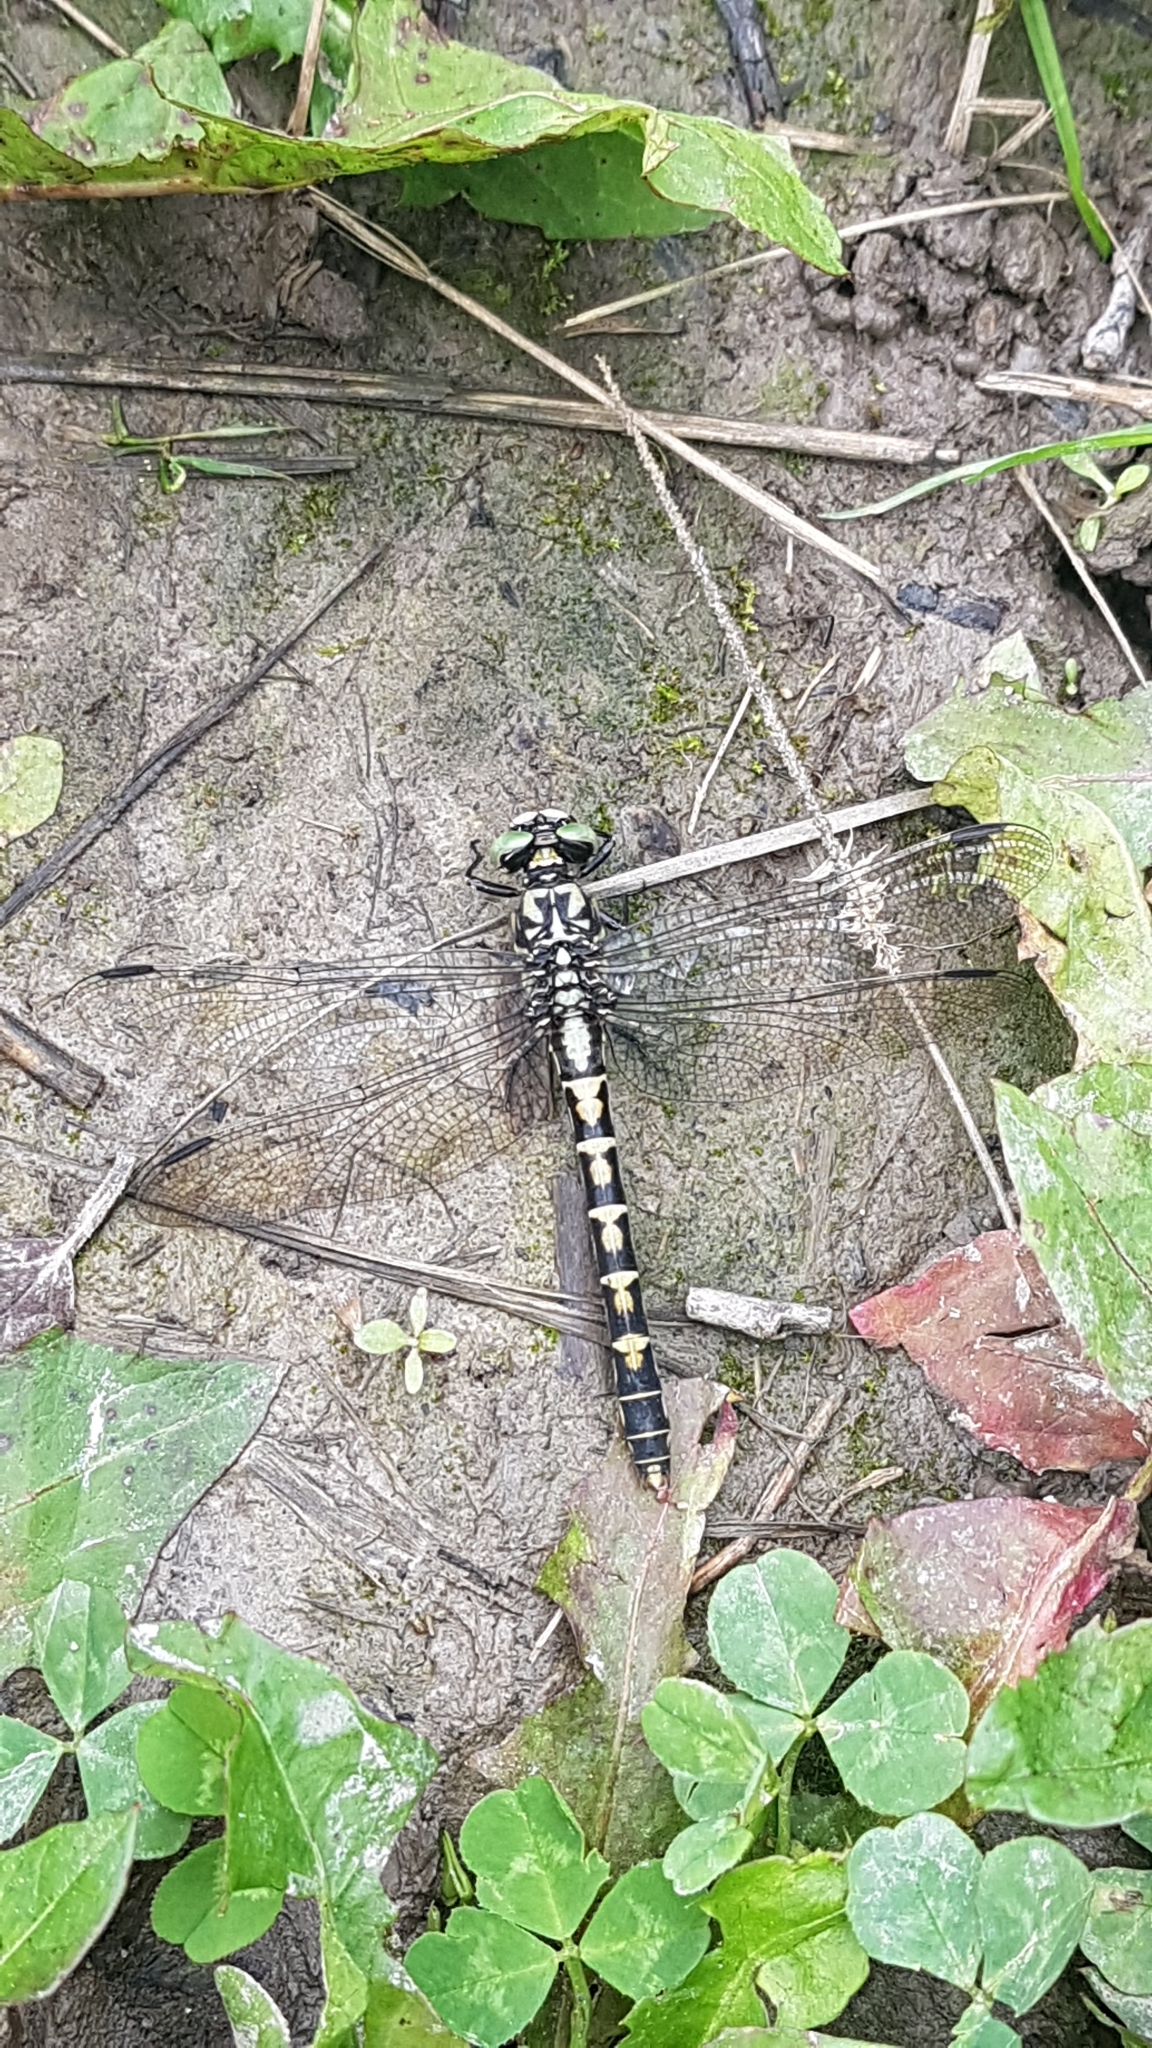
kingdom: Animalia
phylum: Arthropoda
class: Insecta
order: Odonata
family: Gomphidae
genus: Onychogomphus
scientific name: Onychogomphus forcipatus
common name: Small pincertail
